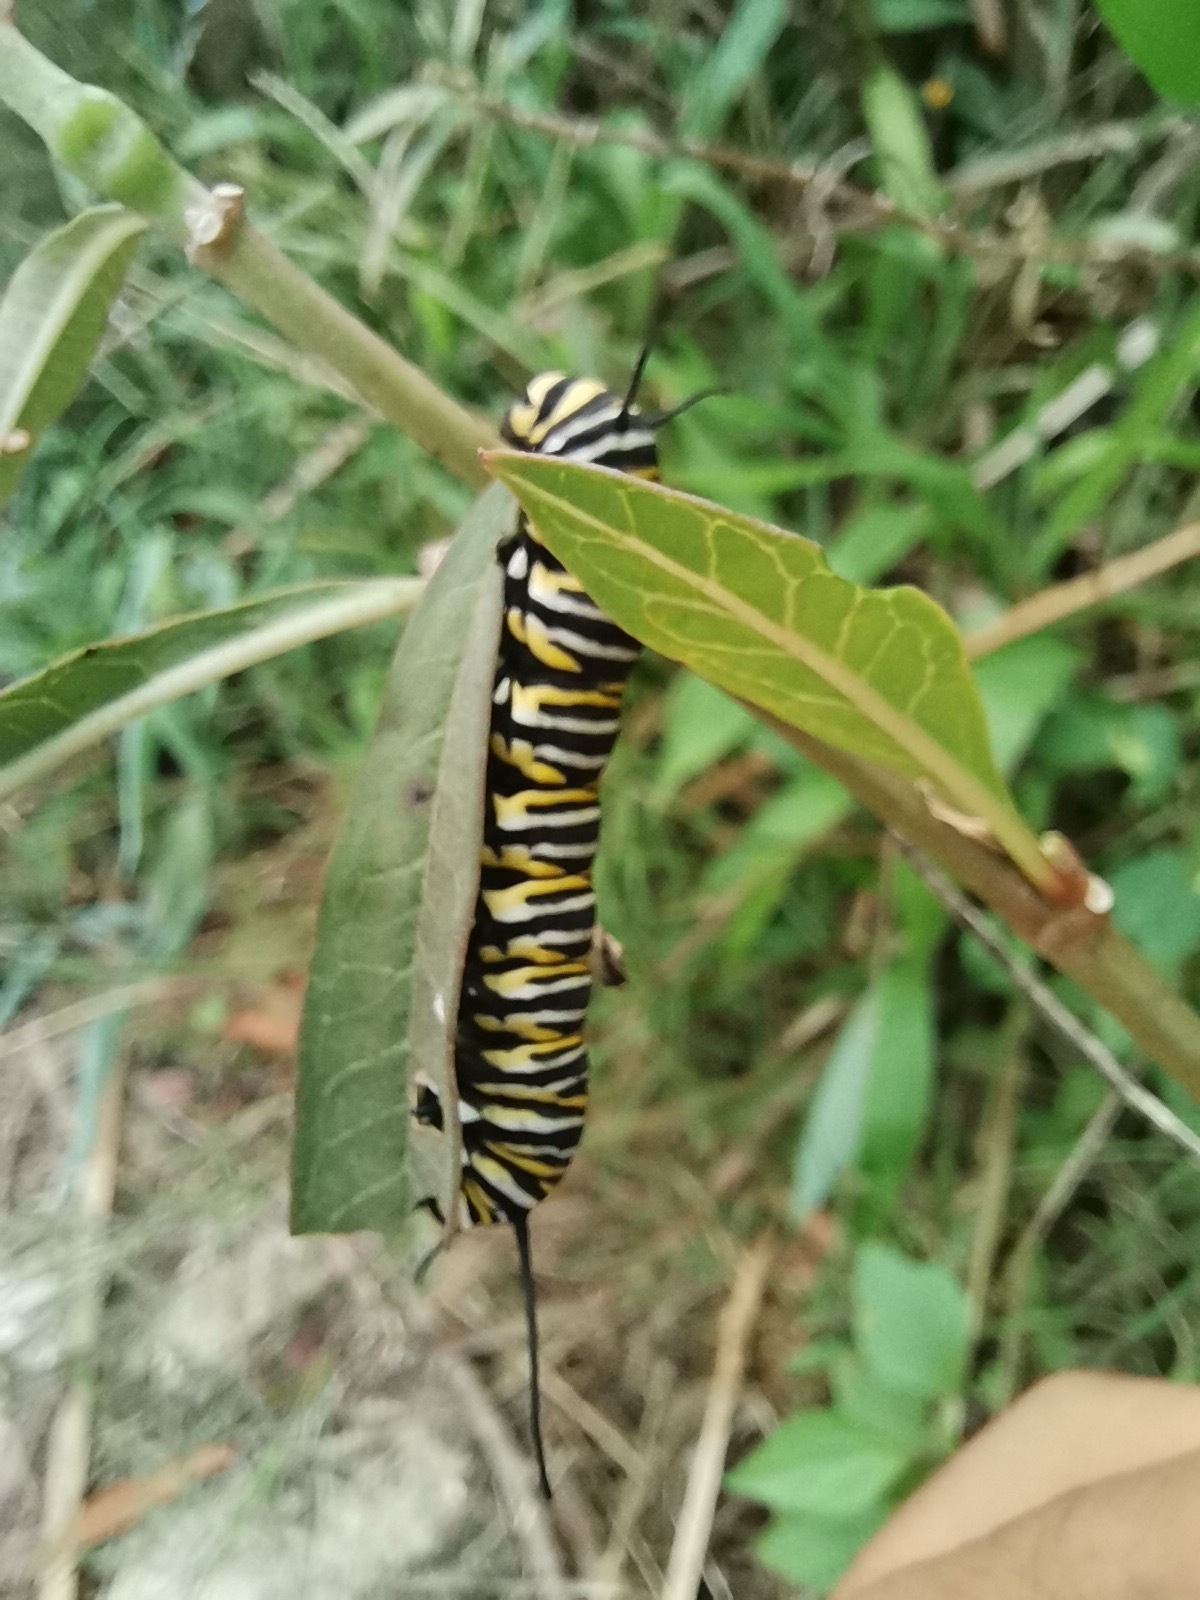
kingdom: Plantae
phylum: Tracheophyta
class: Magnoliopsida
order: Gentianales
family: Apocynaceae
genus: Asclepias
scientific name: Asclepias curassavica
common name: Bloodflower
